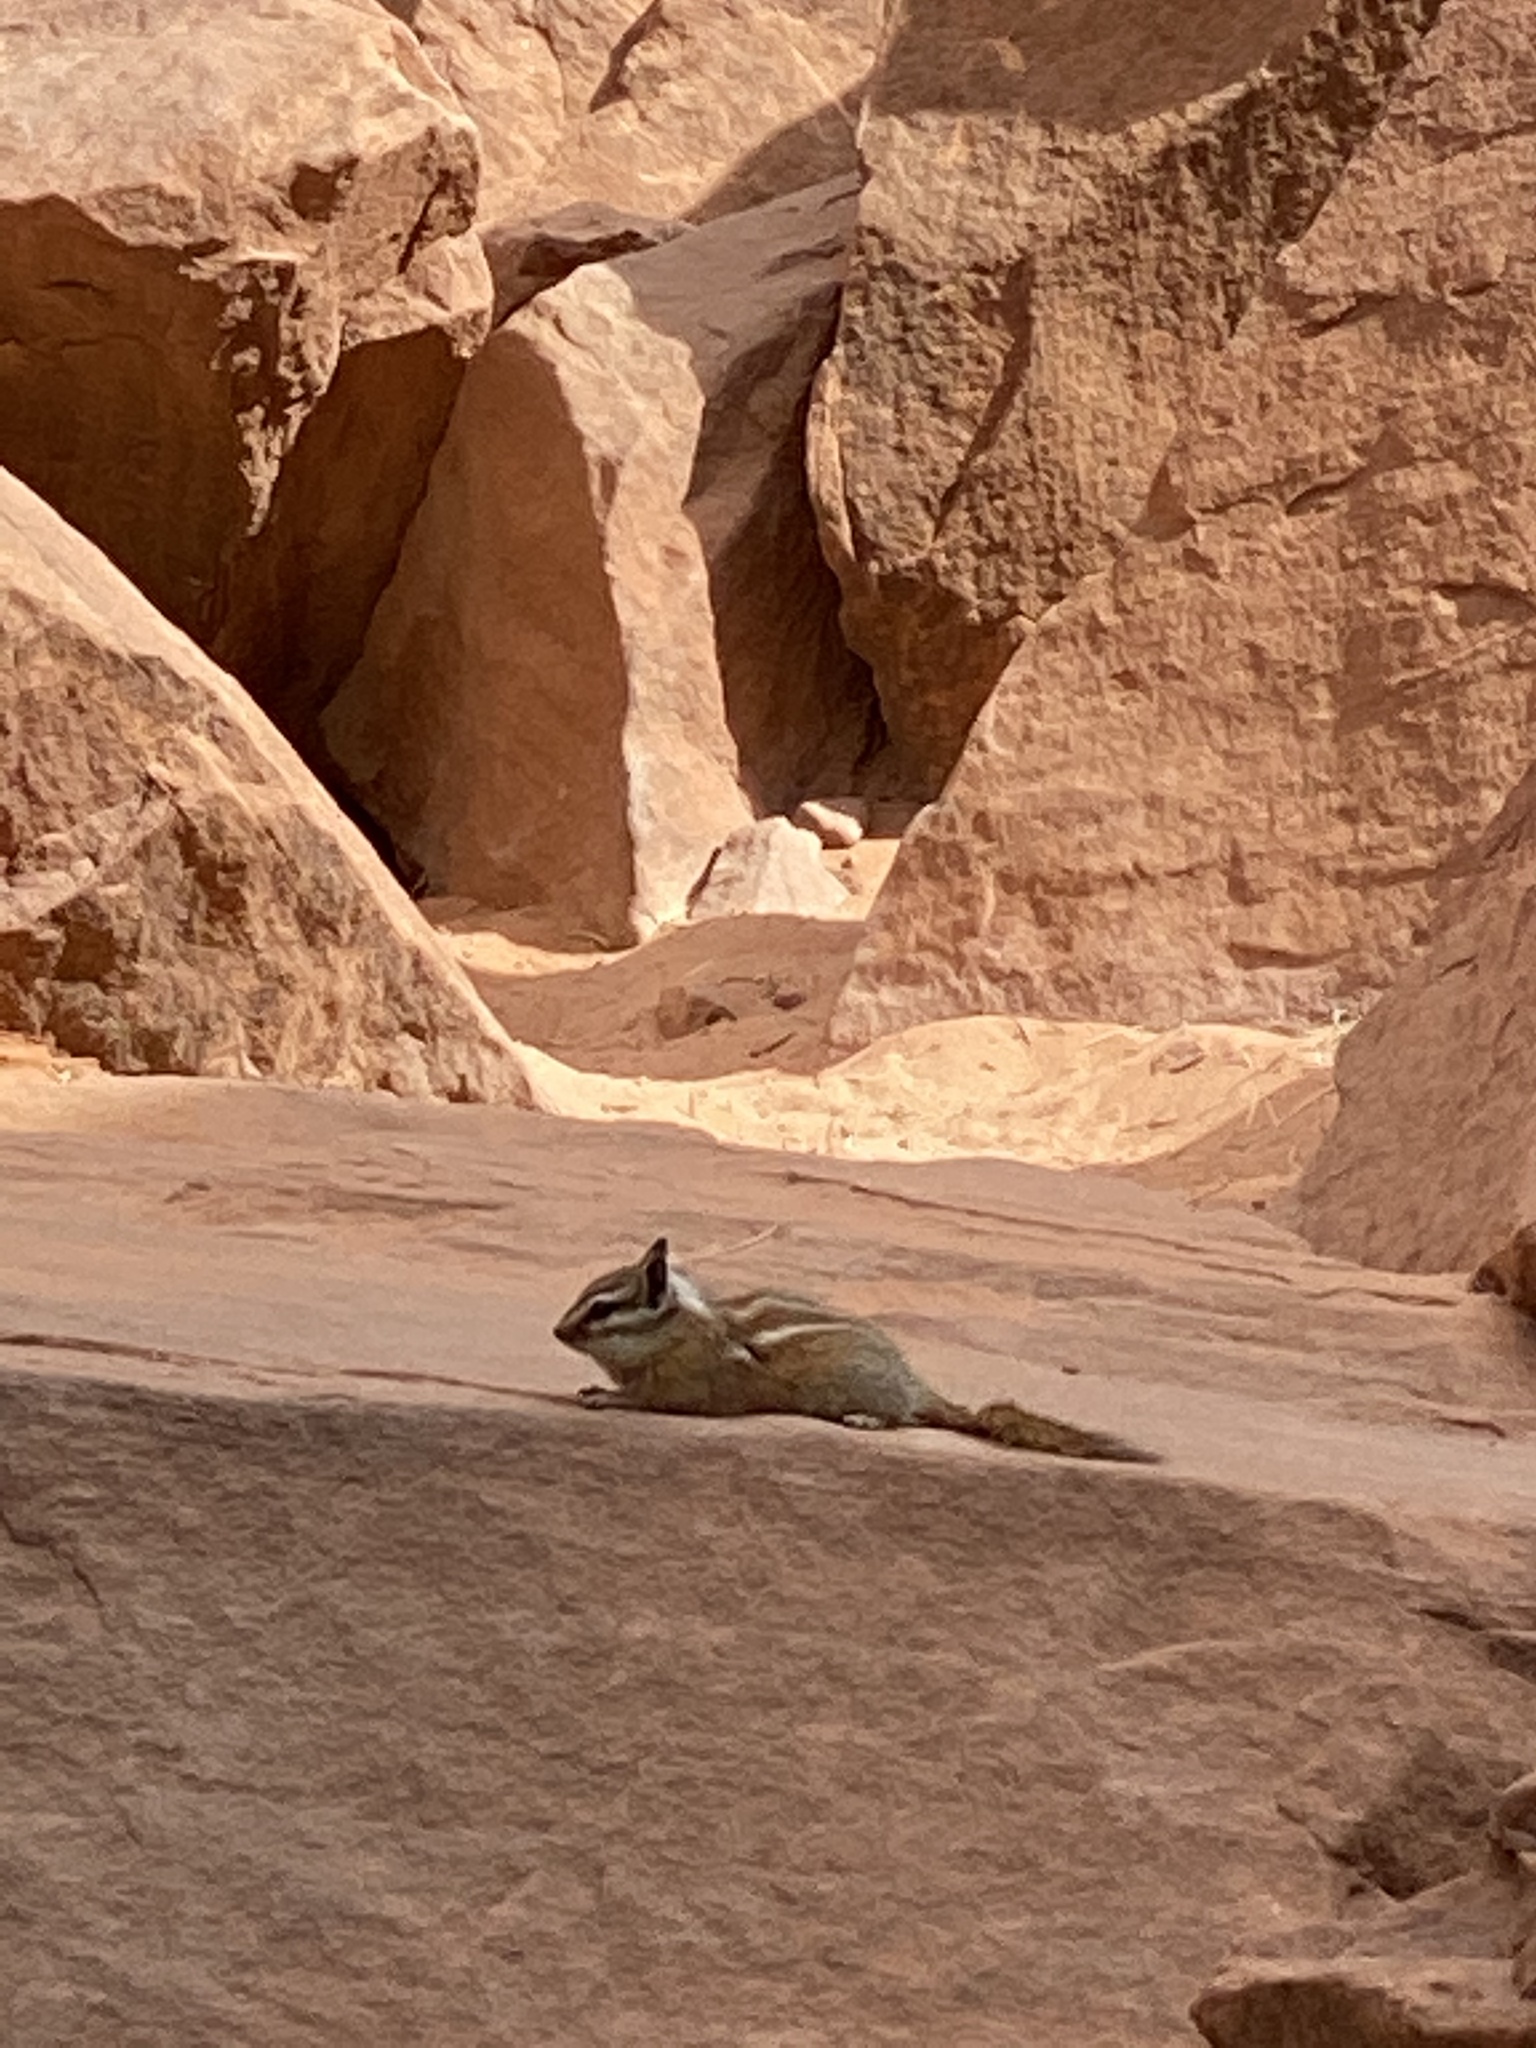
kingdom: Animalia
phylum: Chordata
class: Mammalia
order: Rodentia
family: Sciuridae
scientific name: Sciuridae
